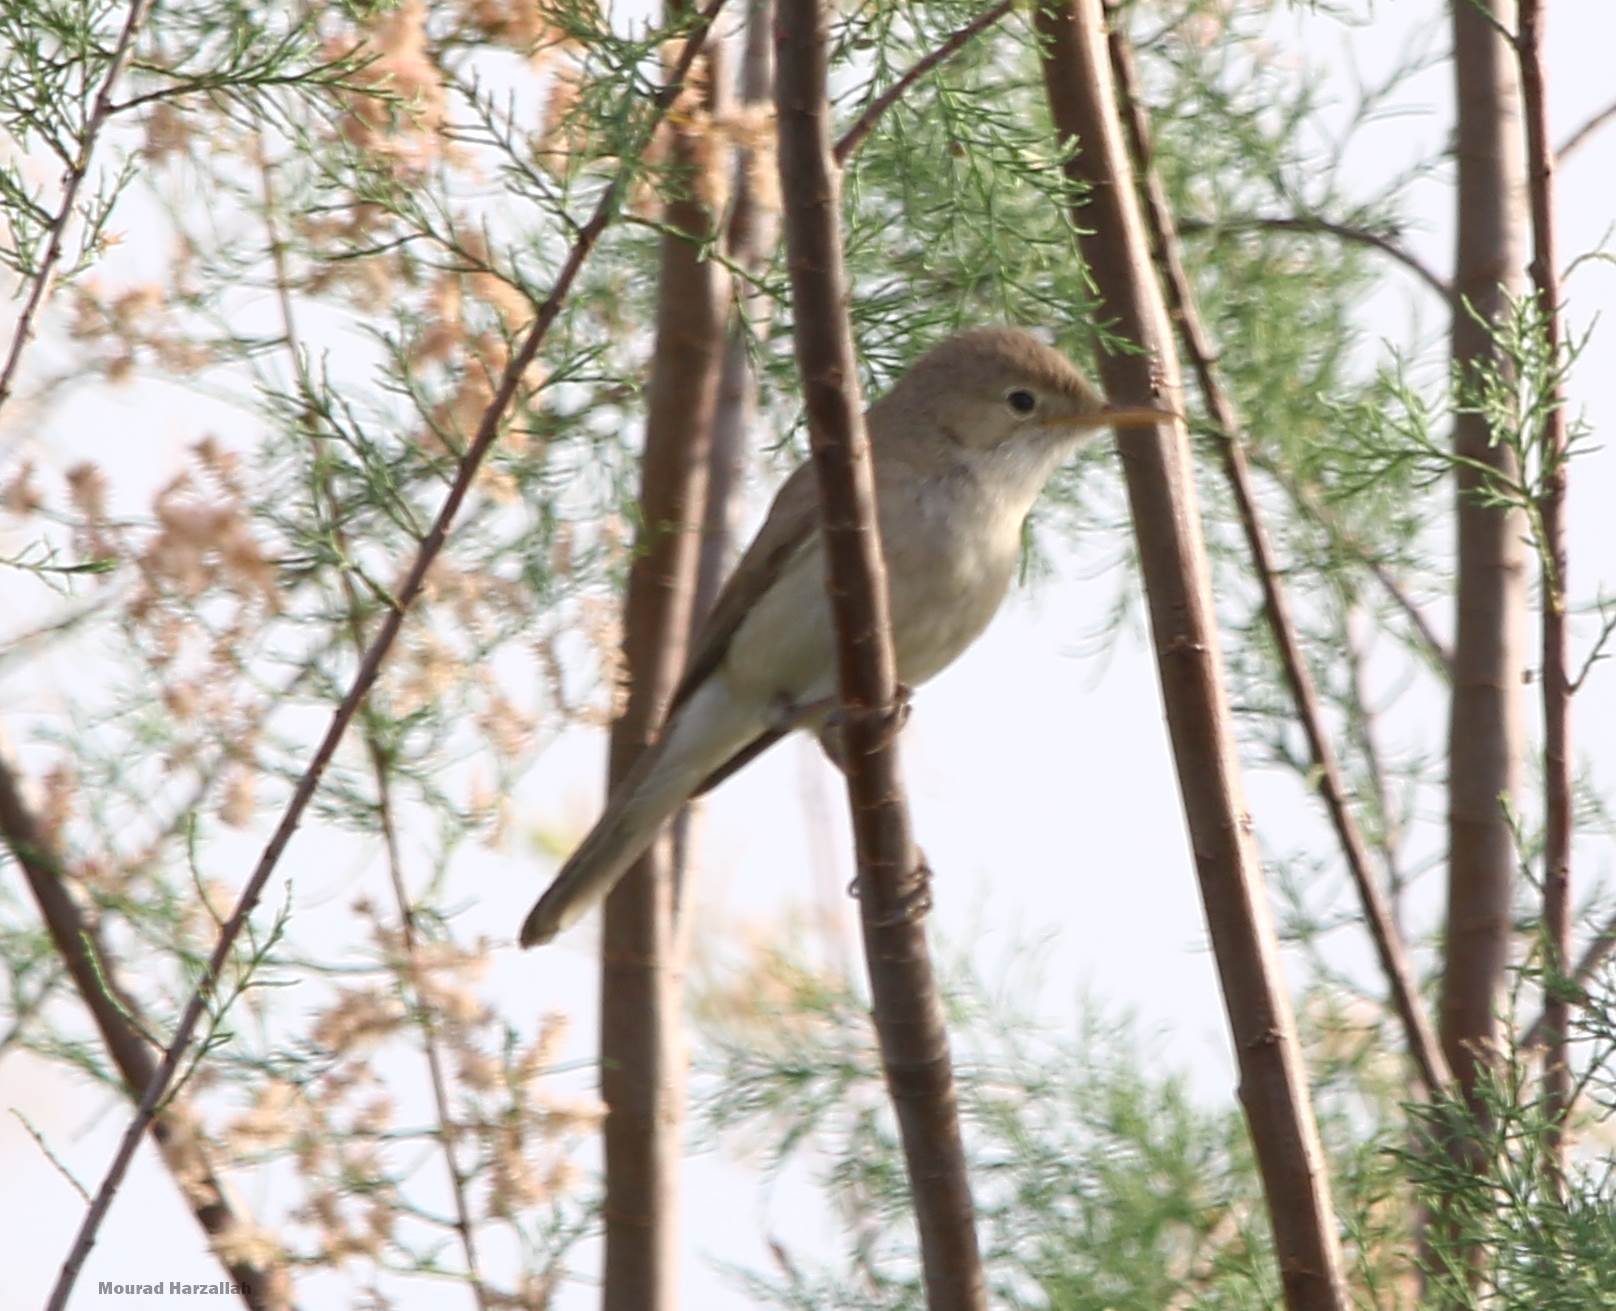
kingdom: Animalia
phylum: Chordata
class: Aves
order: Passeriformes
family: Acrocephalidae
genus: Acrocephalus
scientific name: Acrocephalus scirpaceus
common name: Eurasian reed warbler
